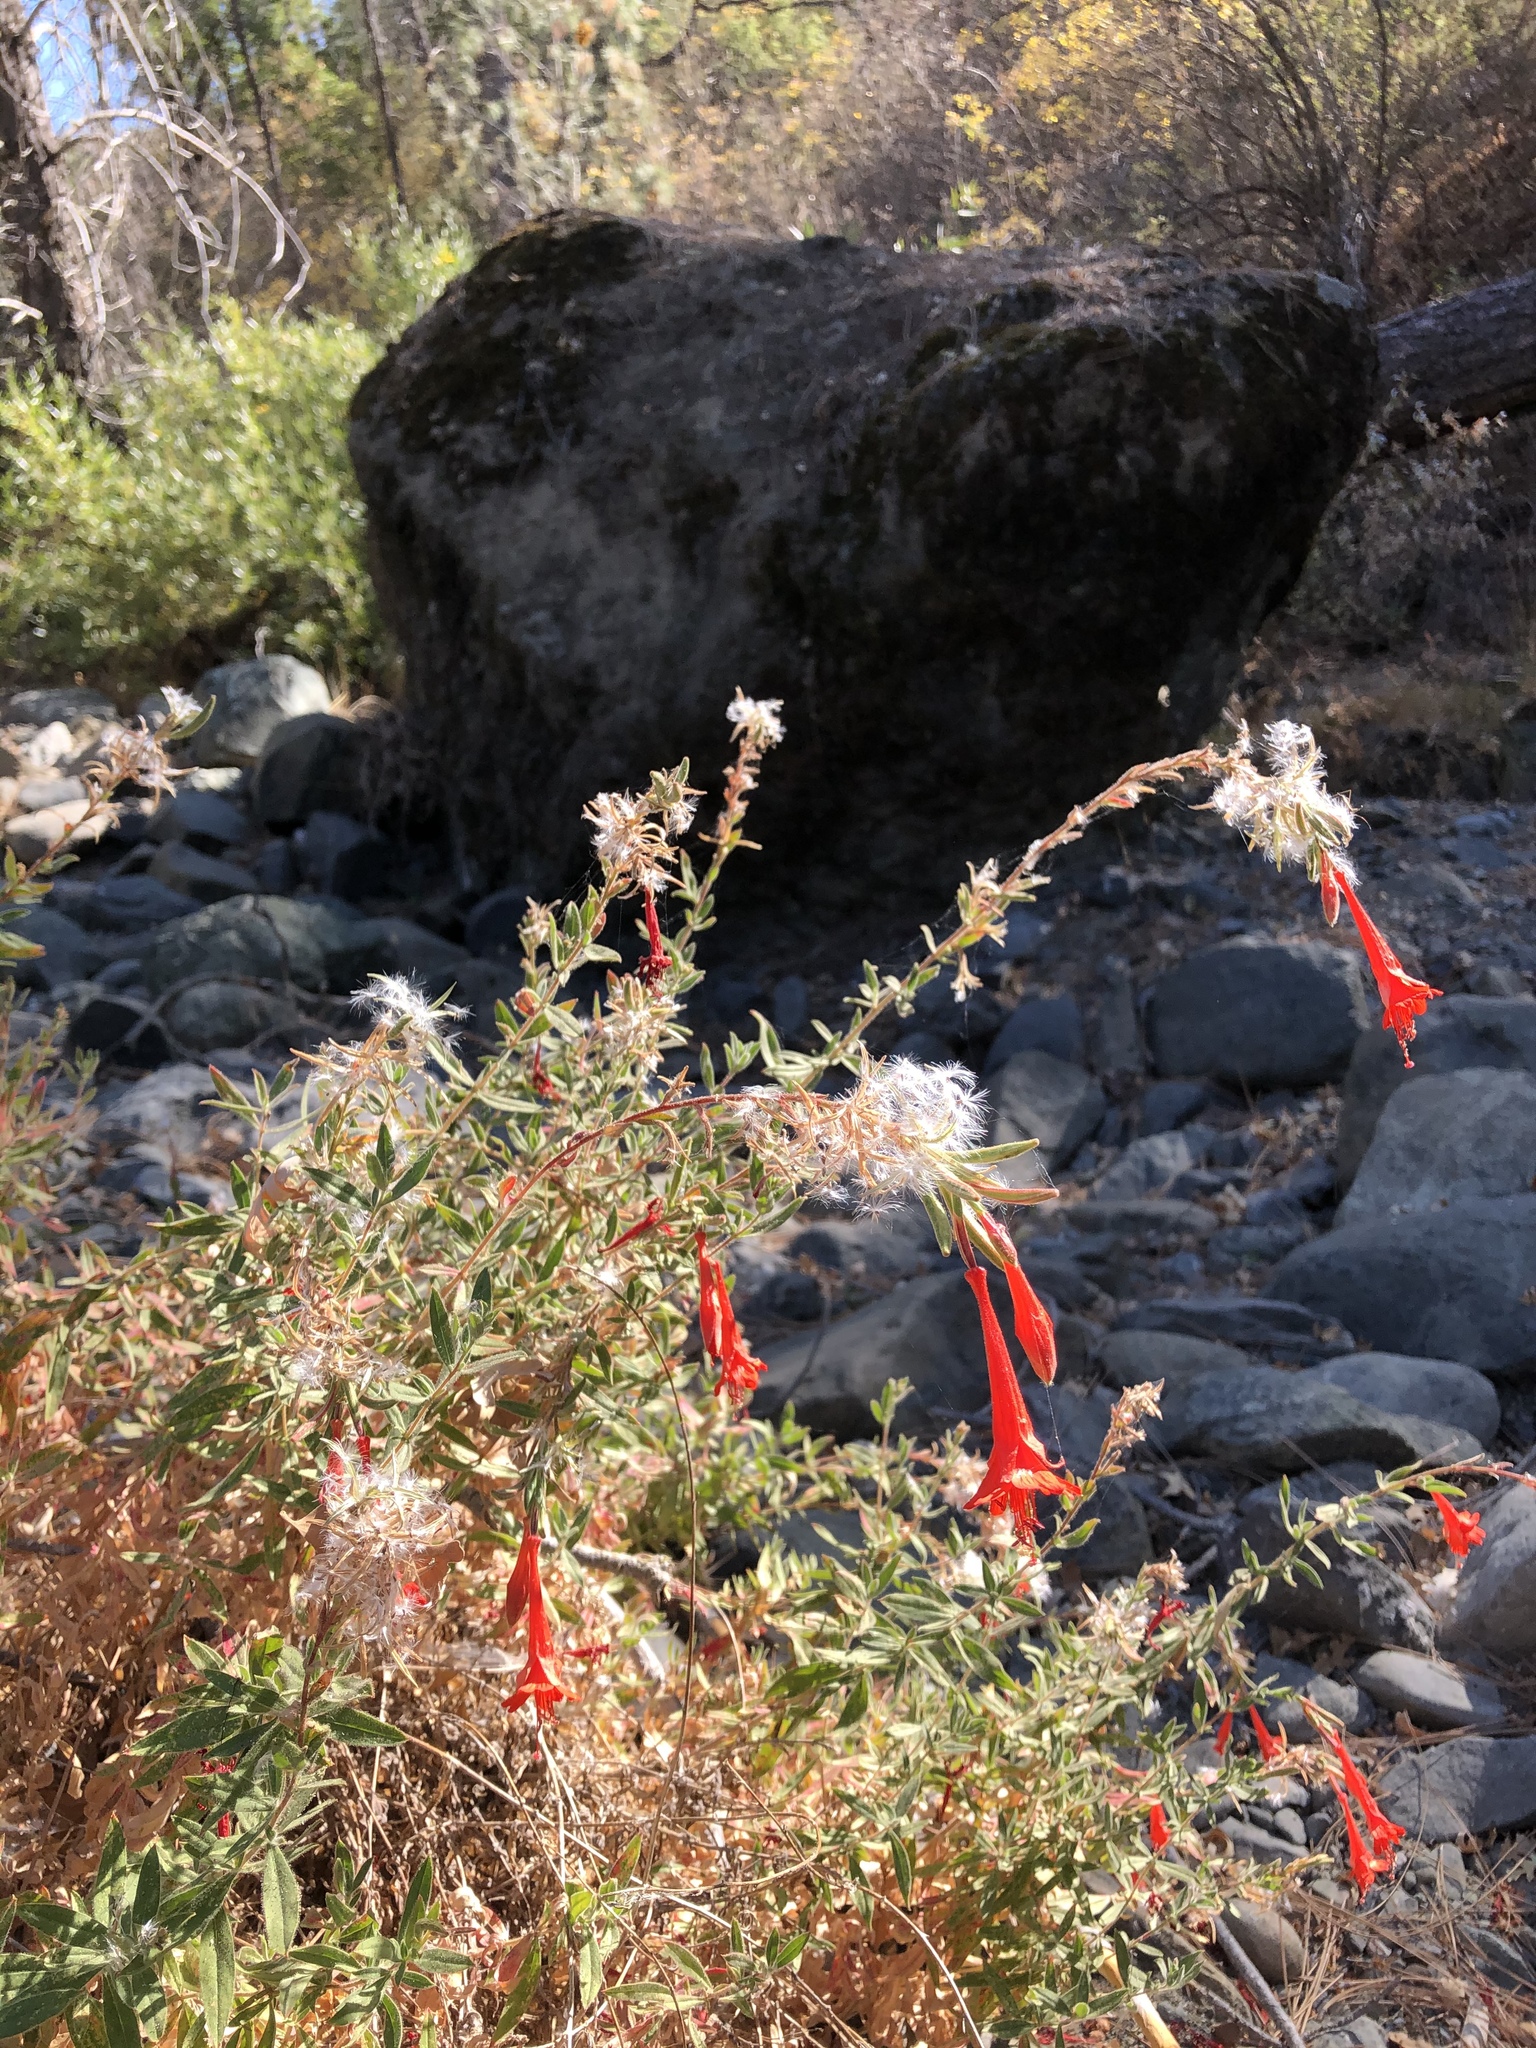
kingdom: Plantae
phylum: Tracheophyta
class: Magnoliopsida
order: Myrtales
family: Onagraceae
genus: Epilobium
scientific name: Epilobium canum
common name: California-fuchsia
